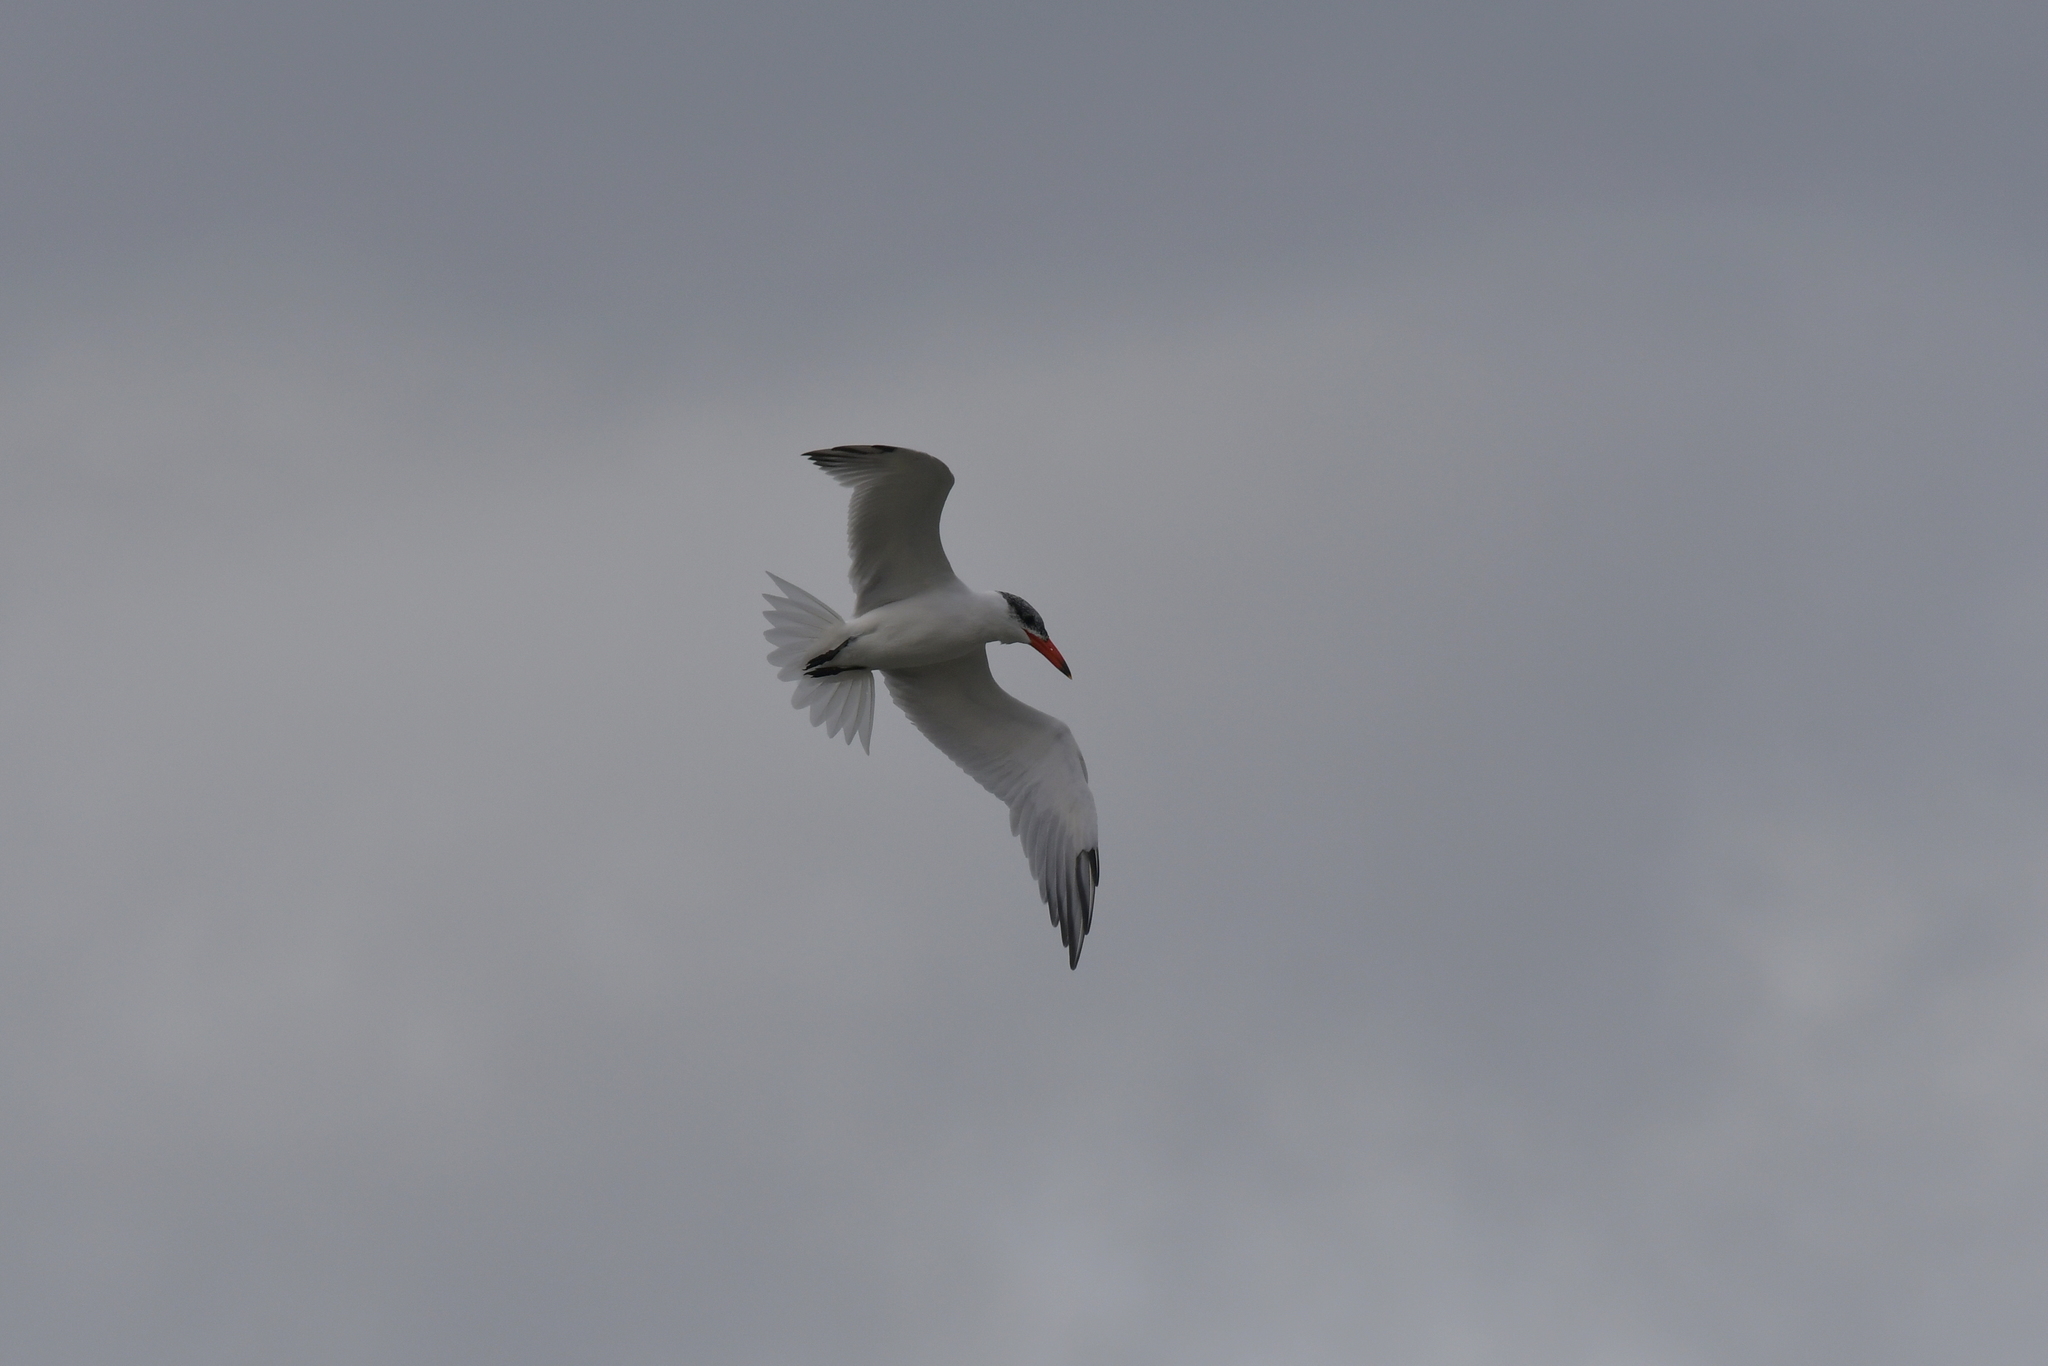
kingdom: Animalia
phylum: Chordata
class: Aves
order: Charadriiformes
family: Laridae
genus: Hydroprogne
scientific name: Hydroprogne caspia
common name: Caspian tern
